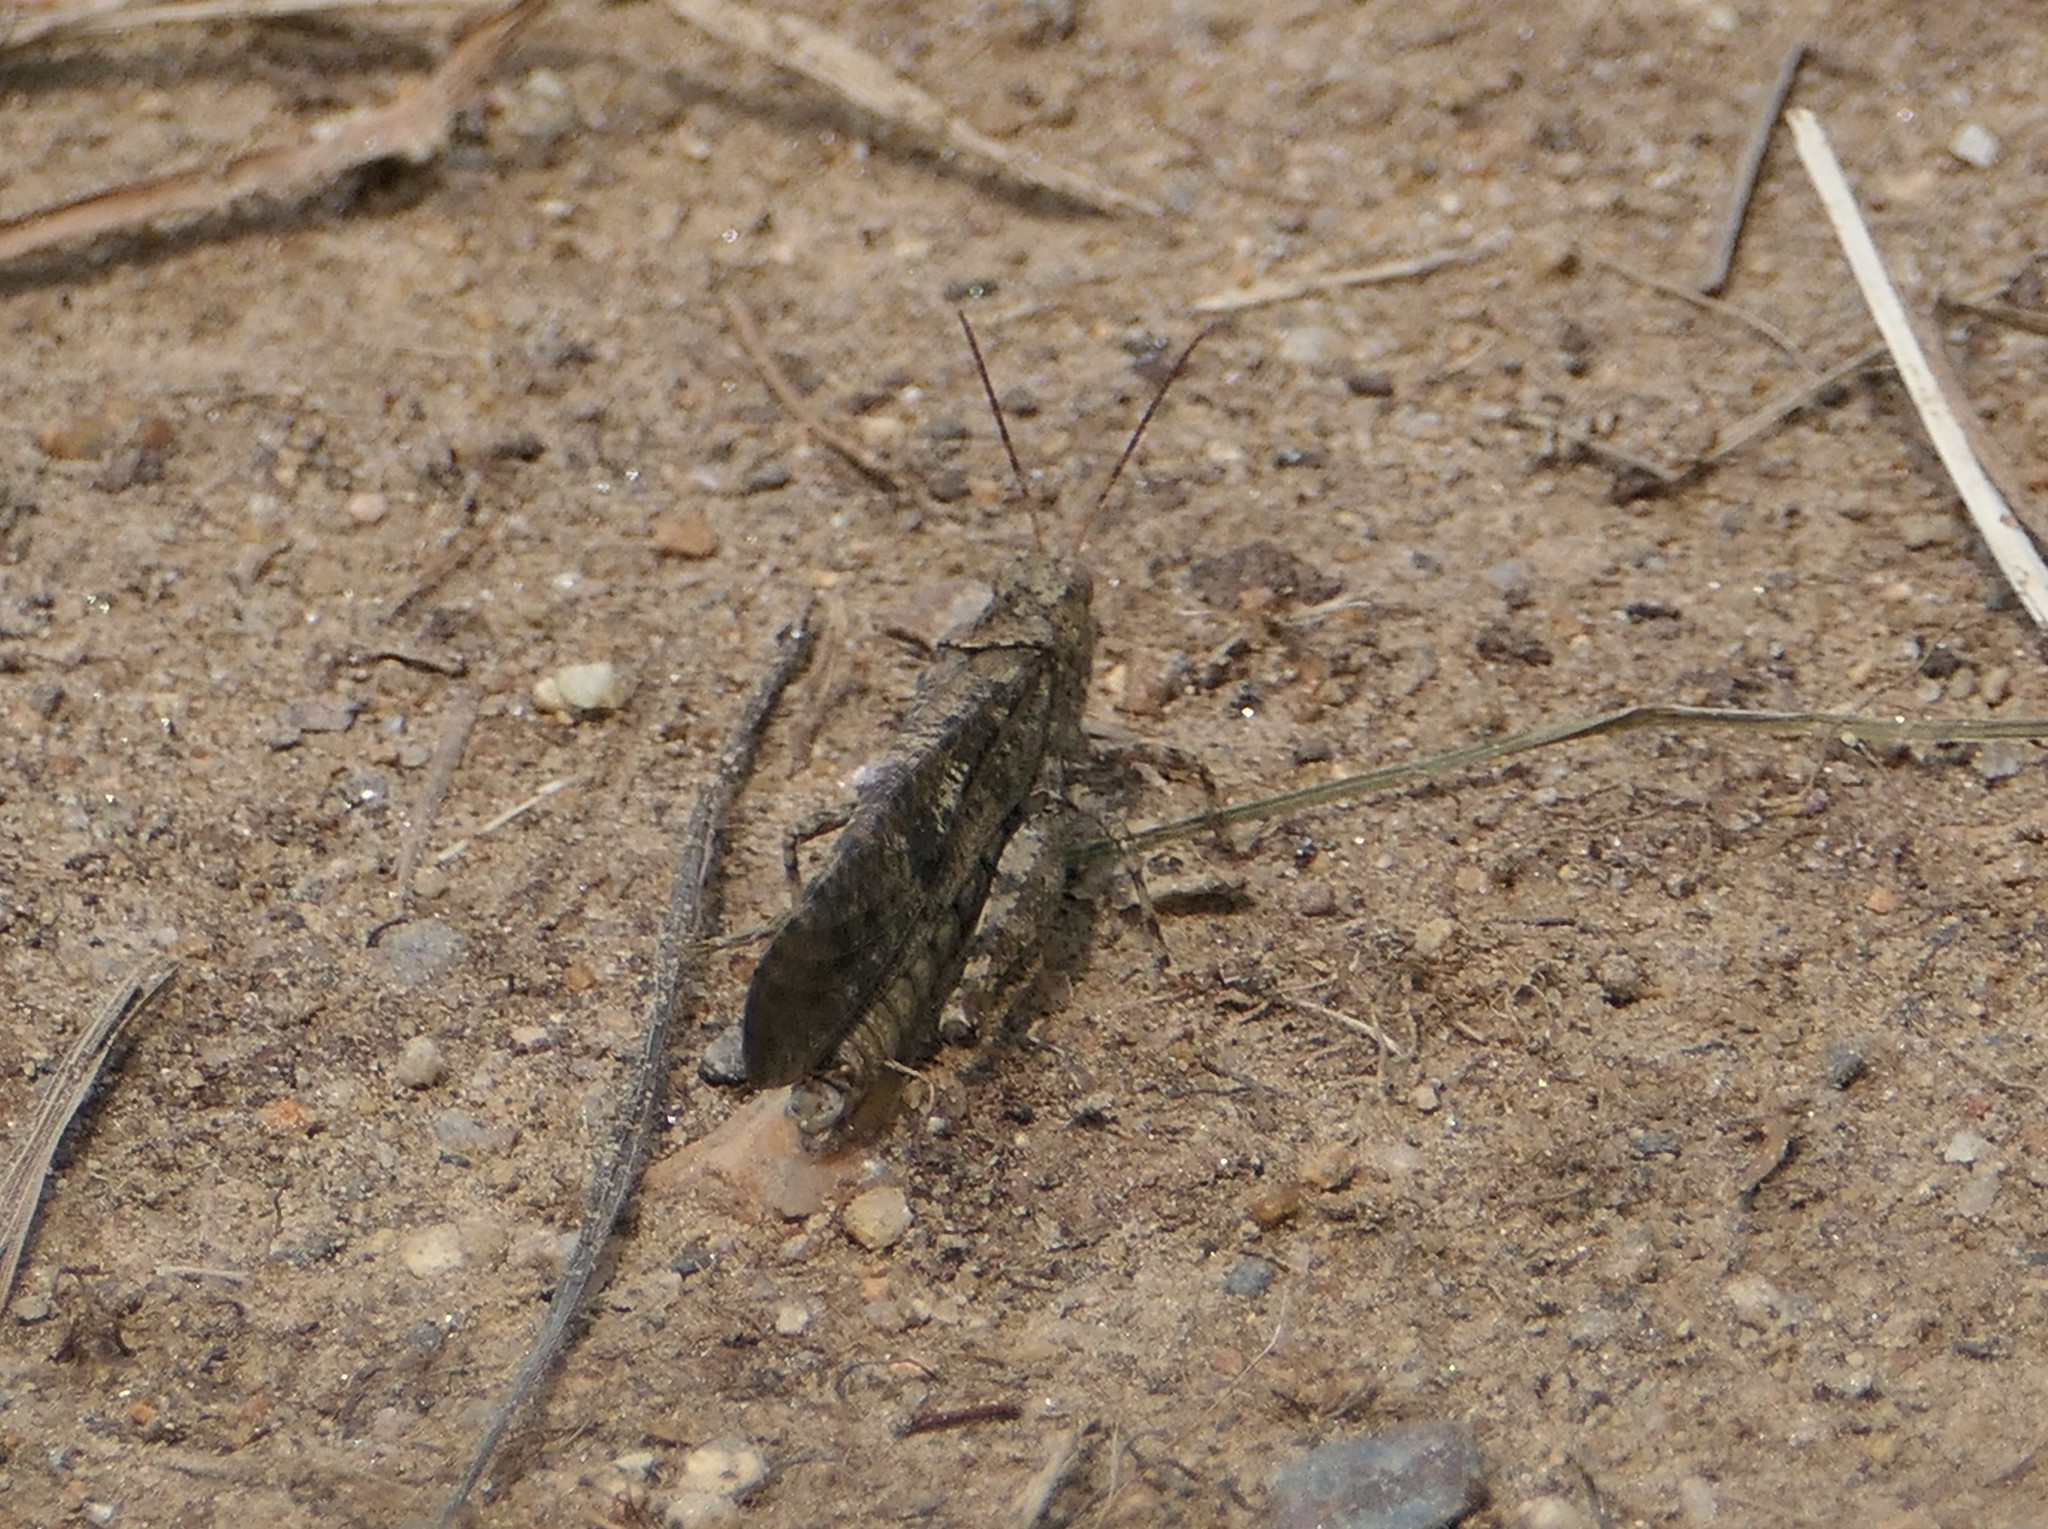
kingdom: Animalia
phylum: Arthropoda
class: Insecta
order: Orthoptera
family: Acrididae
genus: Dissosteira
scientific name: Dissosteira carolina
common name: Carolina grasshopper
